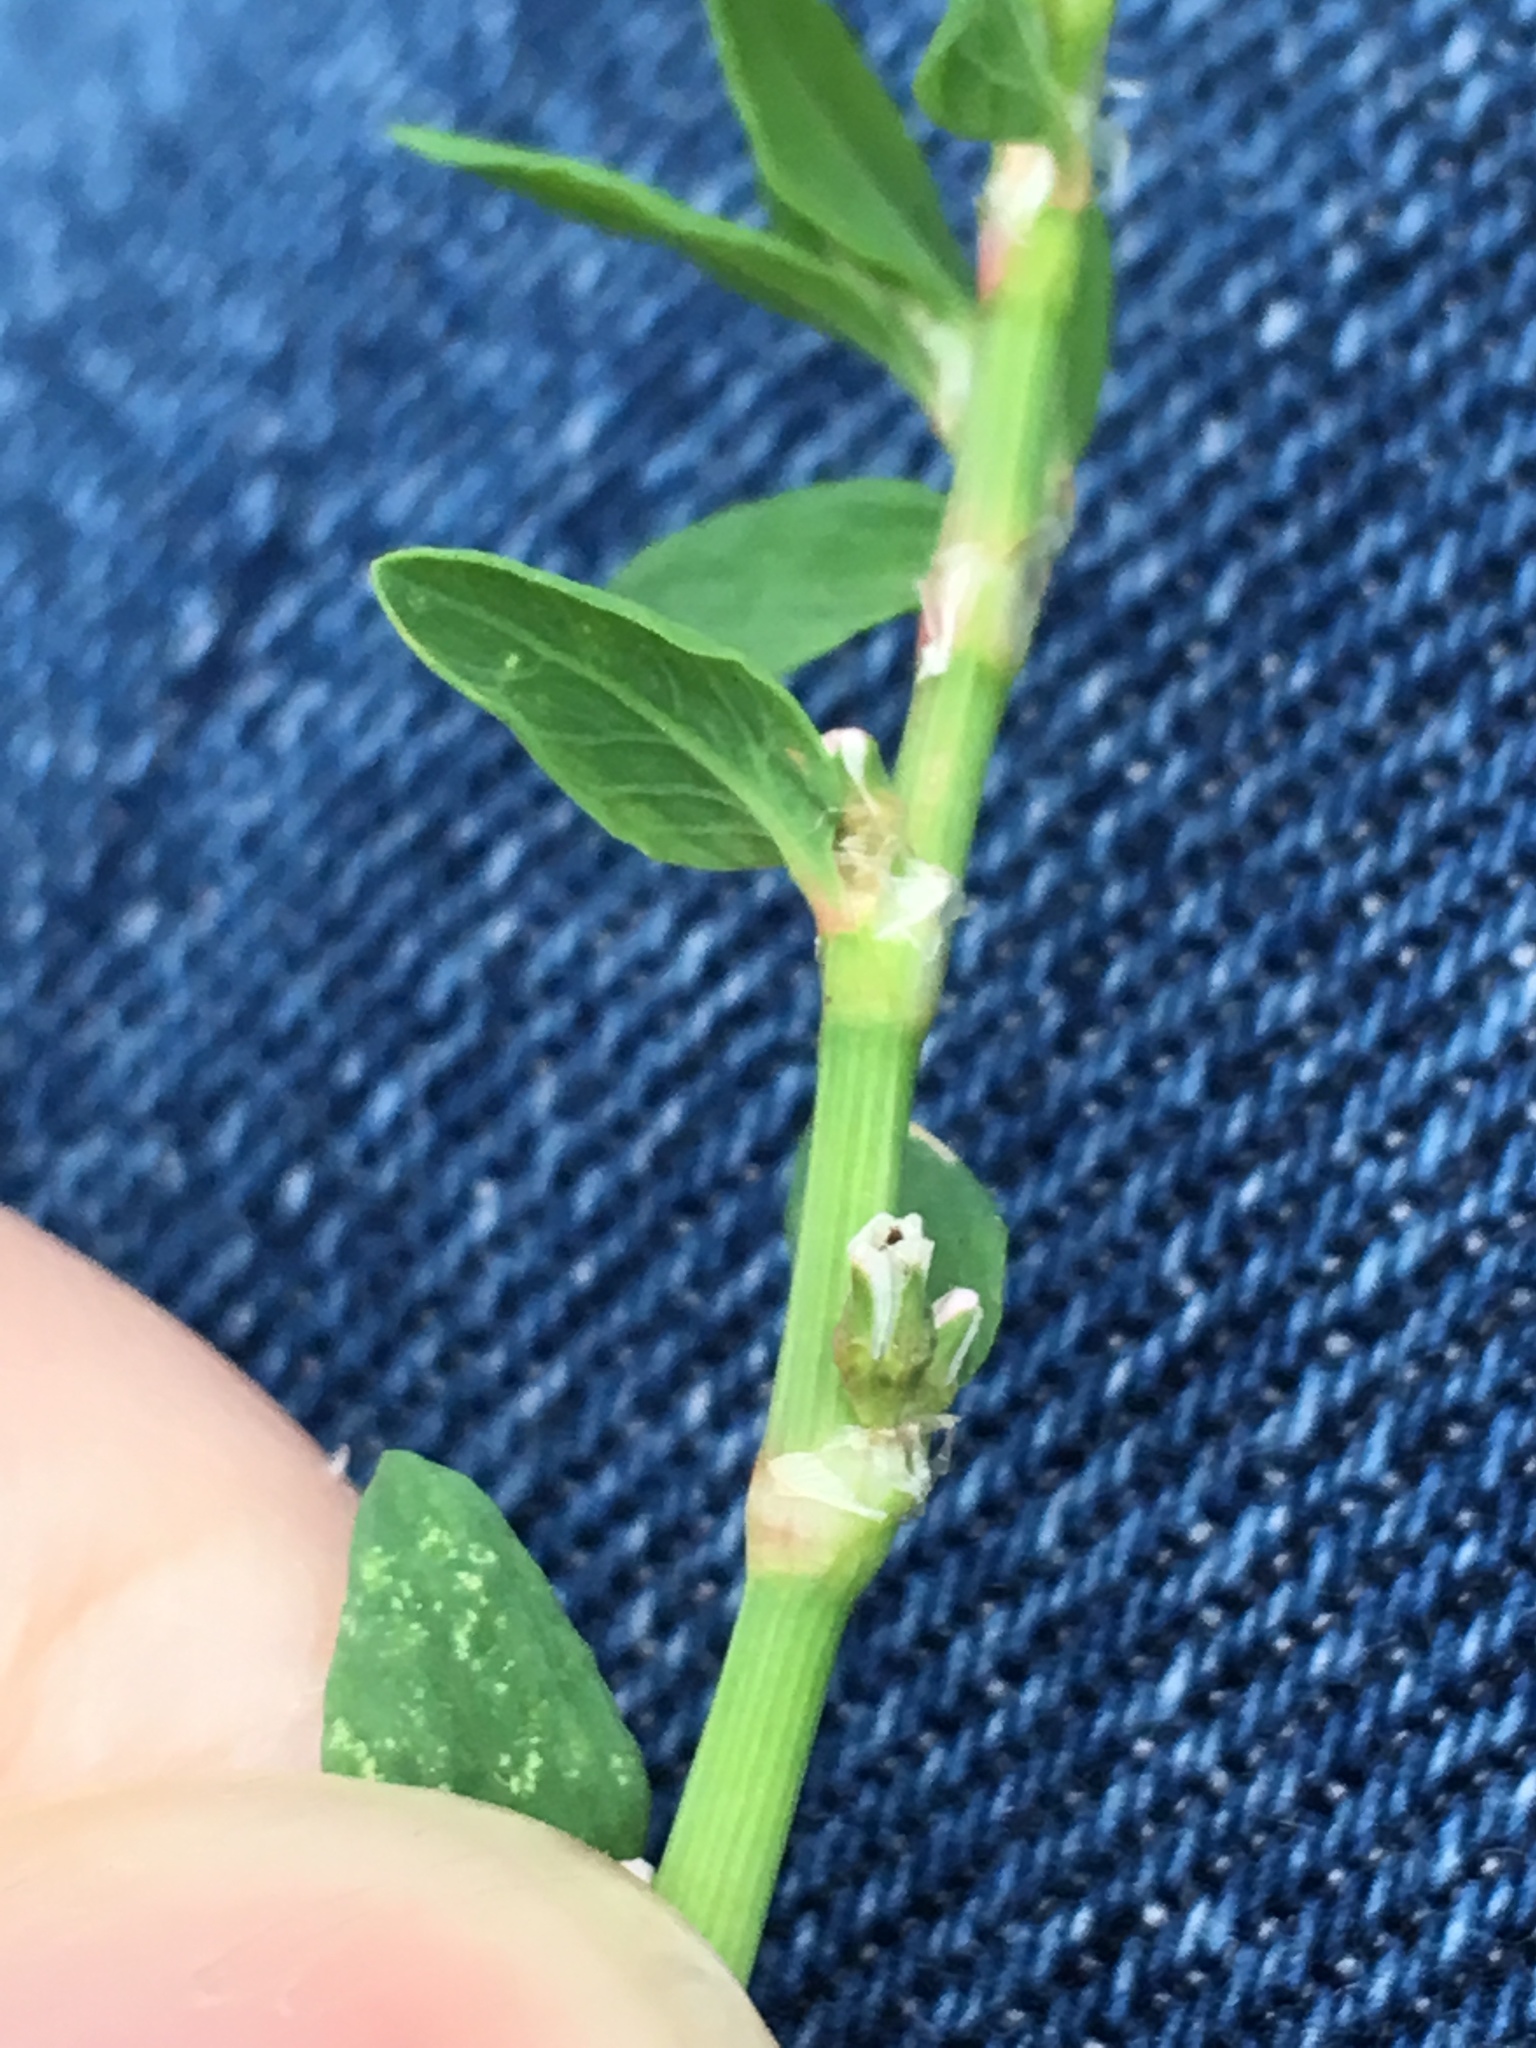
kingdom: Plantae
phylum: Tracheophyta
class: Magnoliopsida
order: Caryophyllales
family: Polygonaceae
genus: Polygonum
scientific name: Polygonum aviculare
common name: Prostrate knotweed
